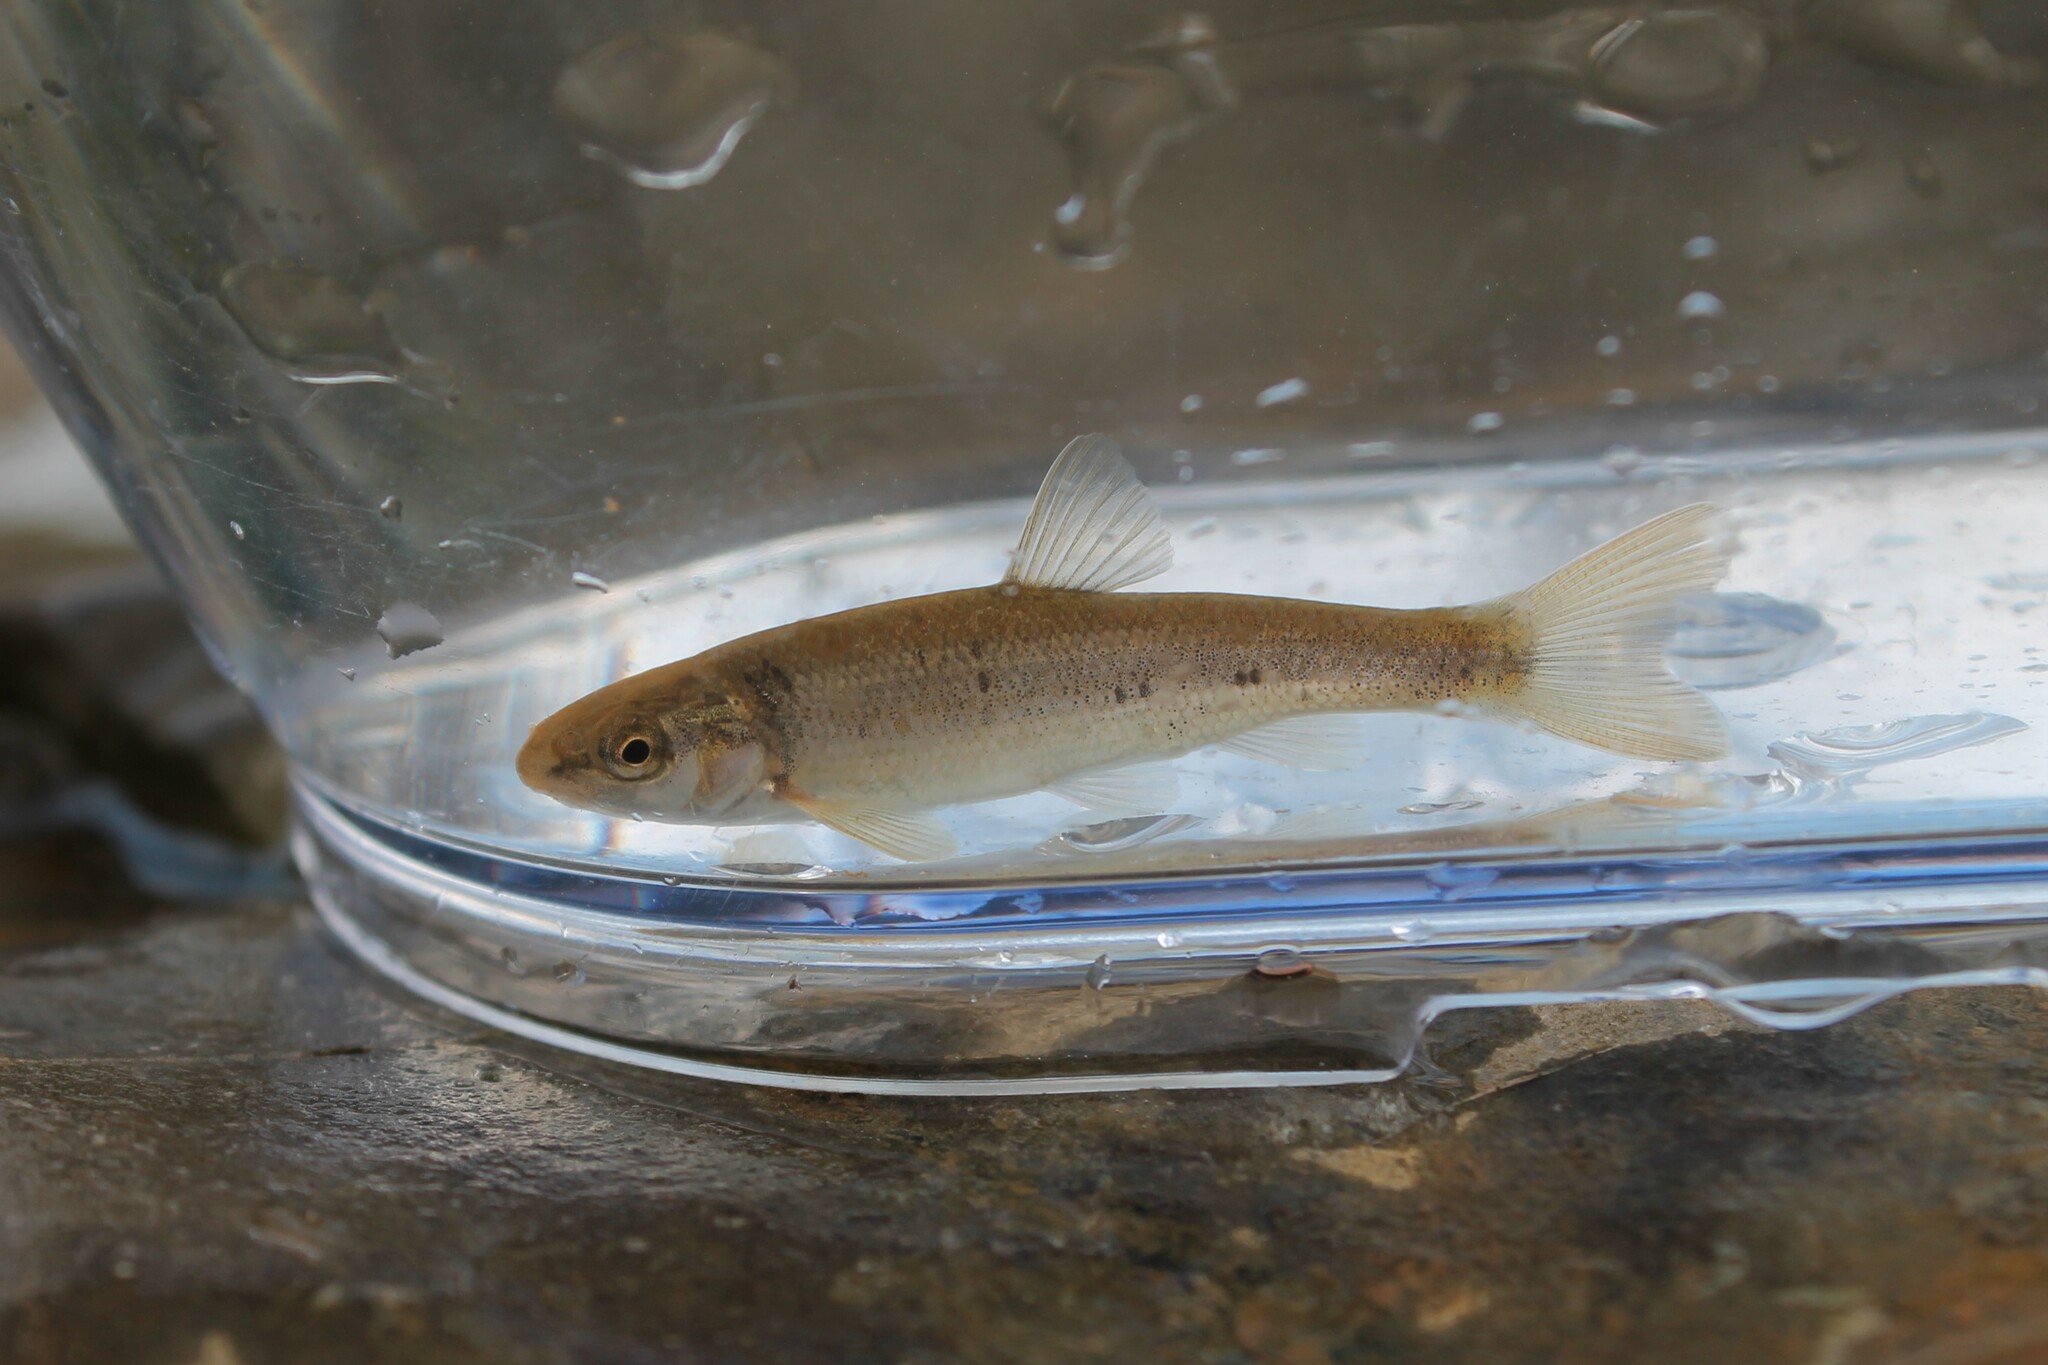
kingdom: Animalia
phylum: Chordata
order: Cypriniformes
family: Cyprinidae
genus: Campostoma
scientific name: Campostoma oligolepis
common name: Largescale stoneroller
